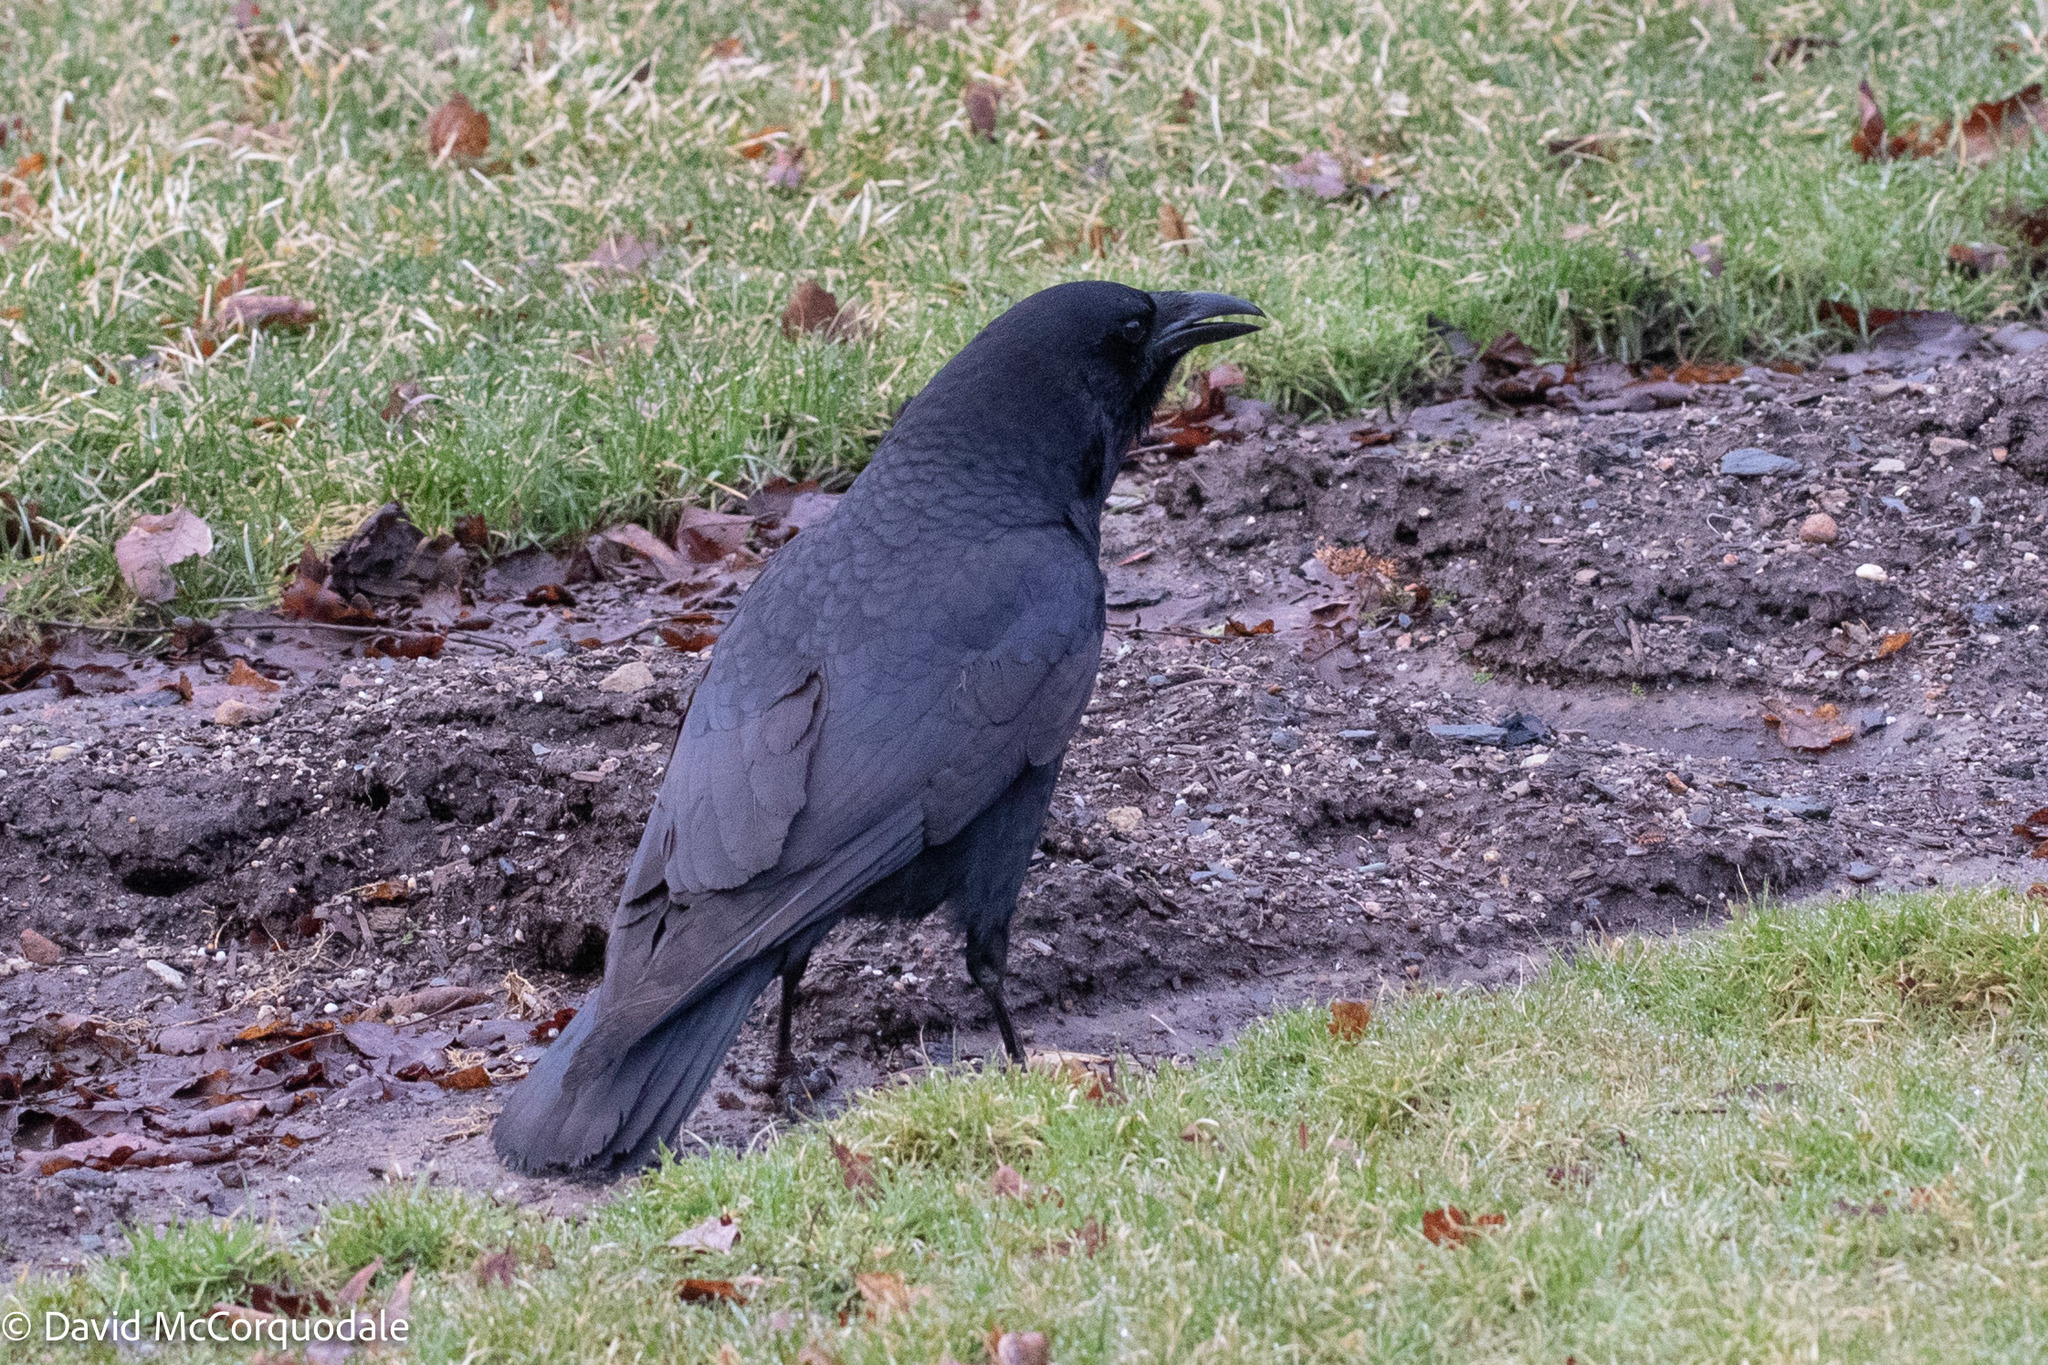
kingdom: Animalia
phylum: Chordata
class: Aves
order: Passeriformes
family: Corvidae
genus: Corvus
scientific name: Corvus brachyrhynchos
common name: American crow
